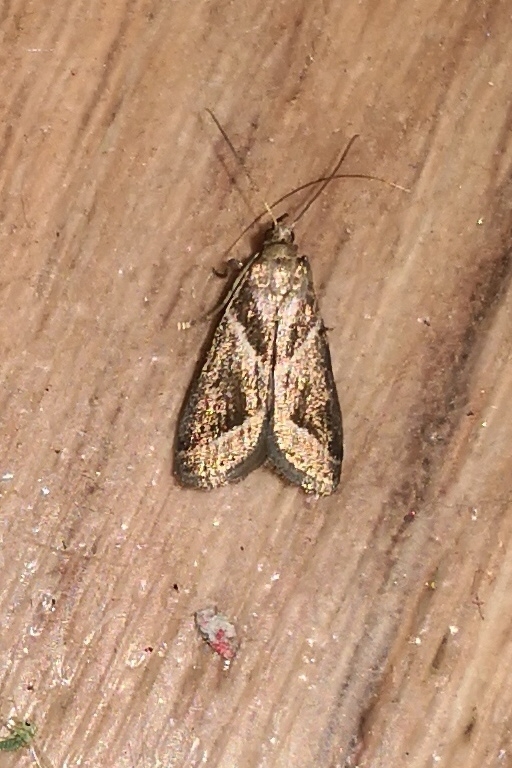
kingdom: Animalia
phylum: Arthropoda
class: Insecta
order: Lepidoptera
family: Pyralidae
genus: Nyctegretis
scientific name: Nyctegretis triangulella
